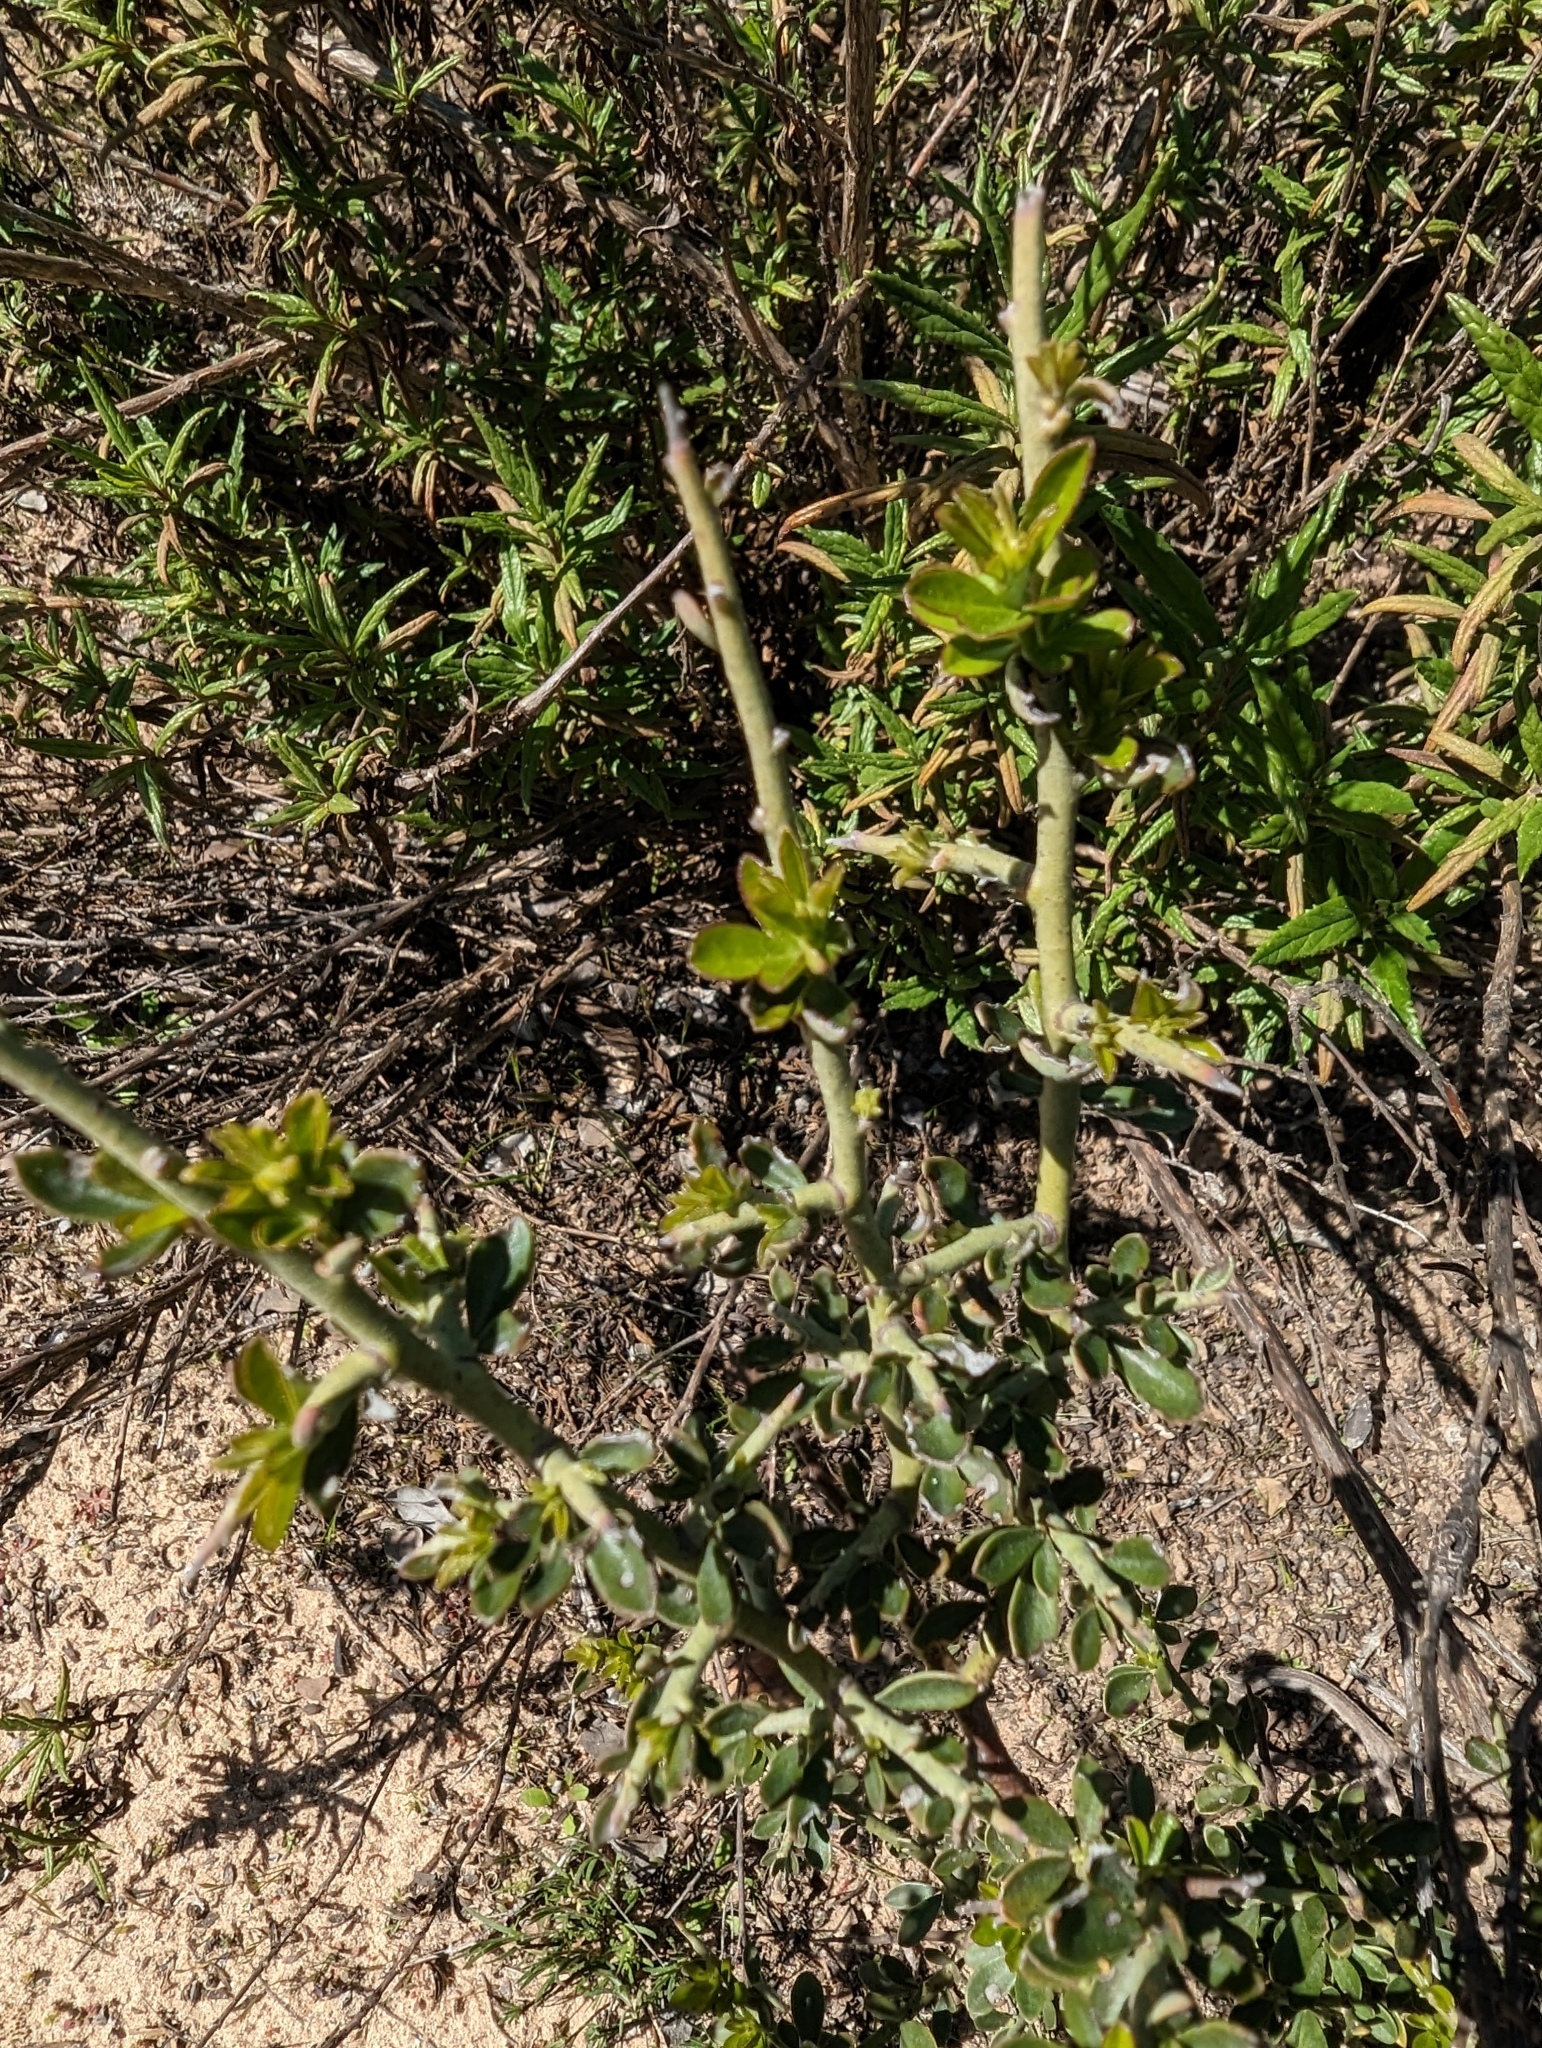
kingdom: Plantae
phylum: Tracheophyta
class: Magnoliopsida
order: Fabales
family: Fabaceae
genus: Pickeringia
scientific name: Pickeringia montana
